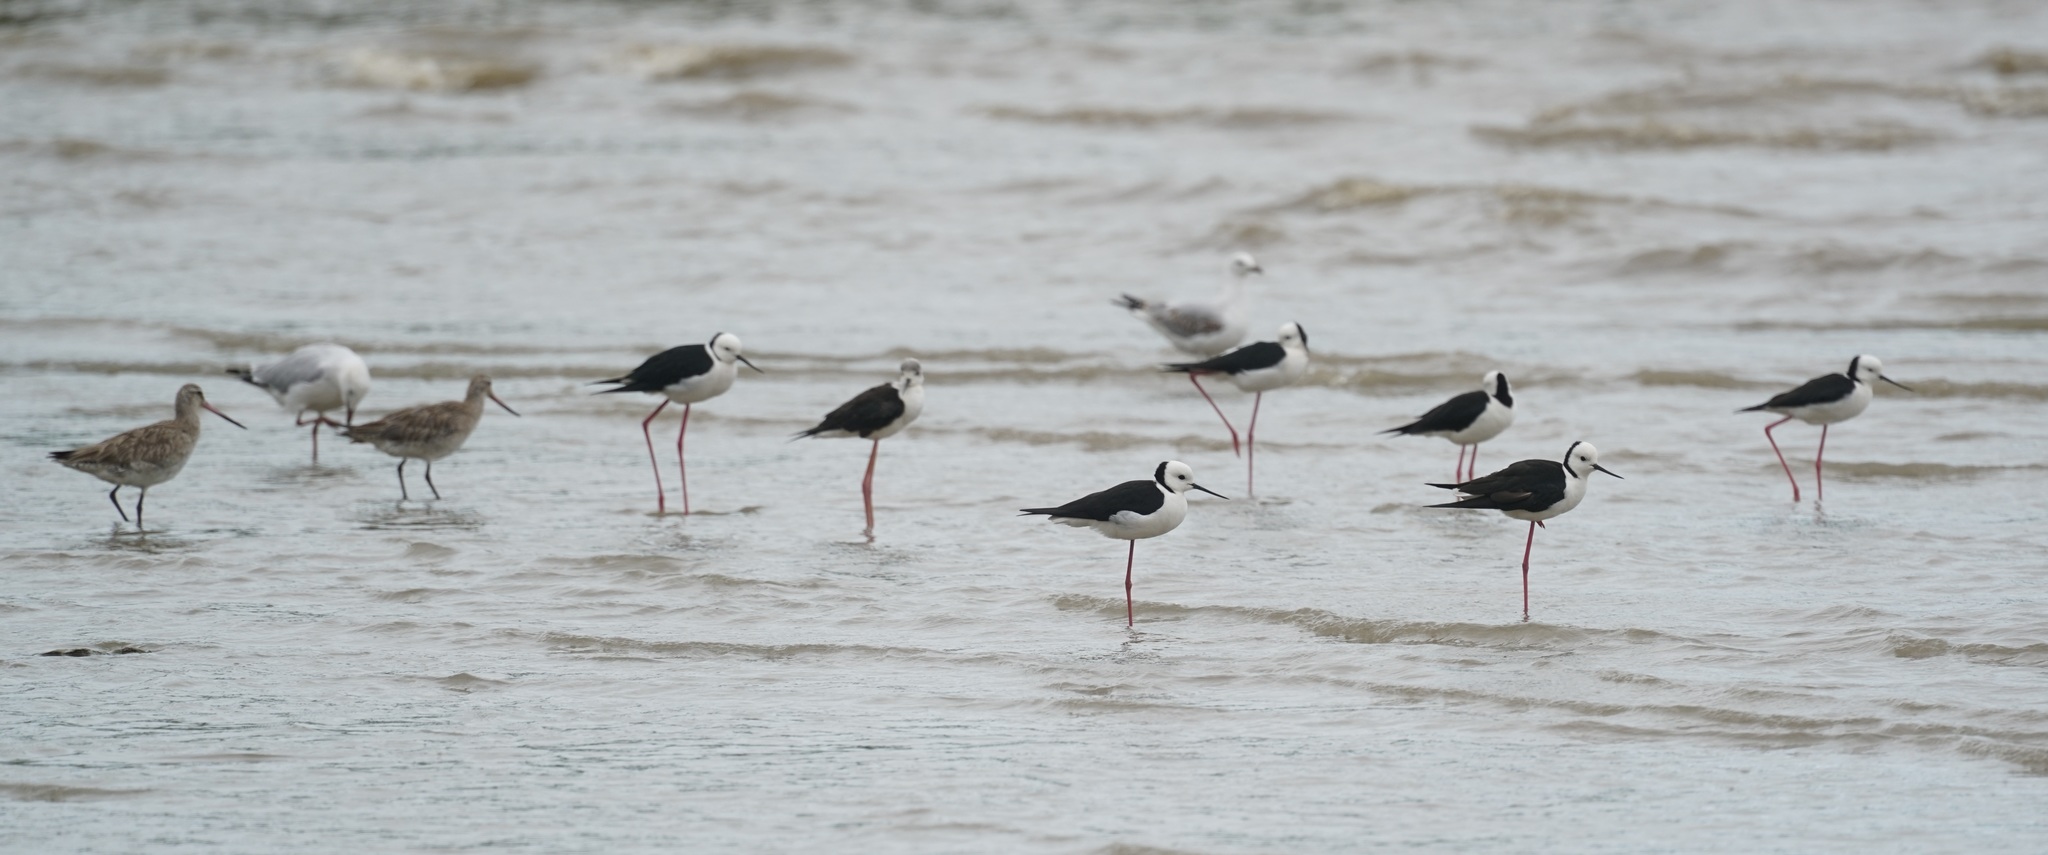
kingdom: Animalia
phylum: Chordata
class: Aves
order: Charadriiformes
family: Recurvirostridae
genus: Himantopus
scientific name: Himantopus leucocephalus
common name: White-headed stilt
